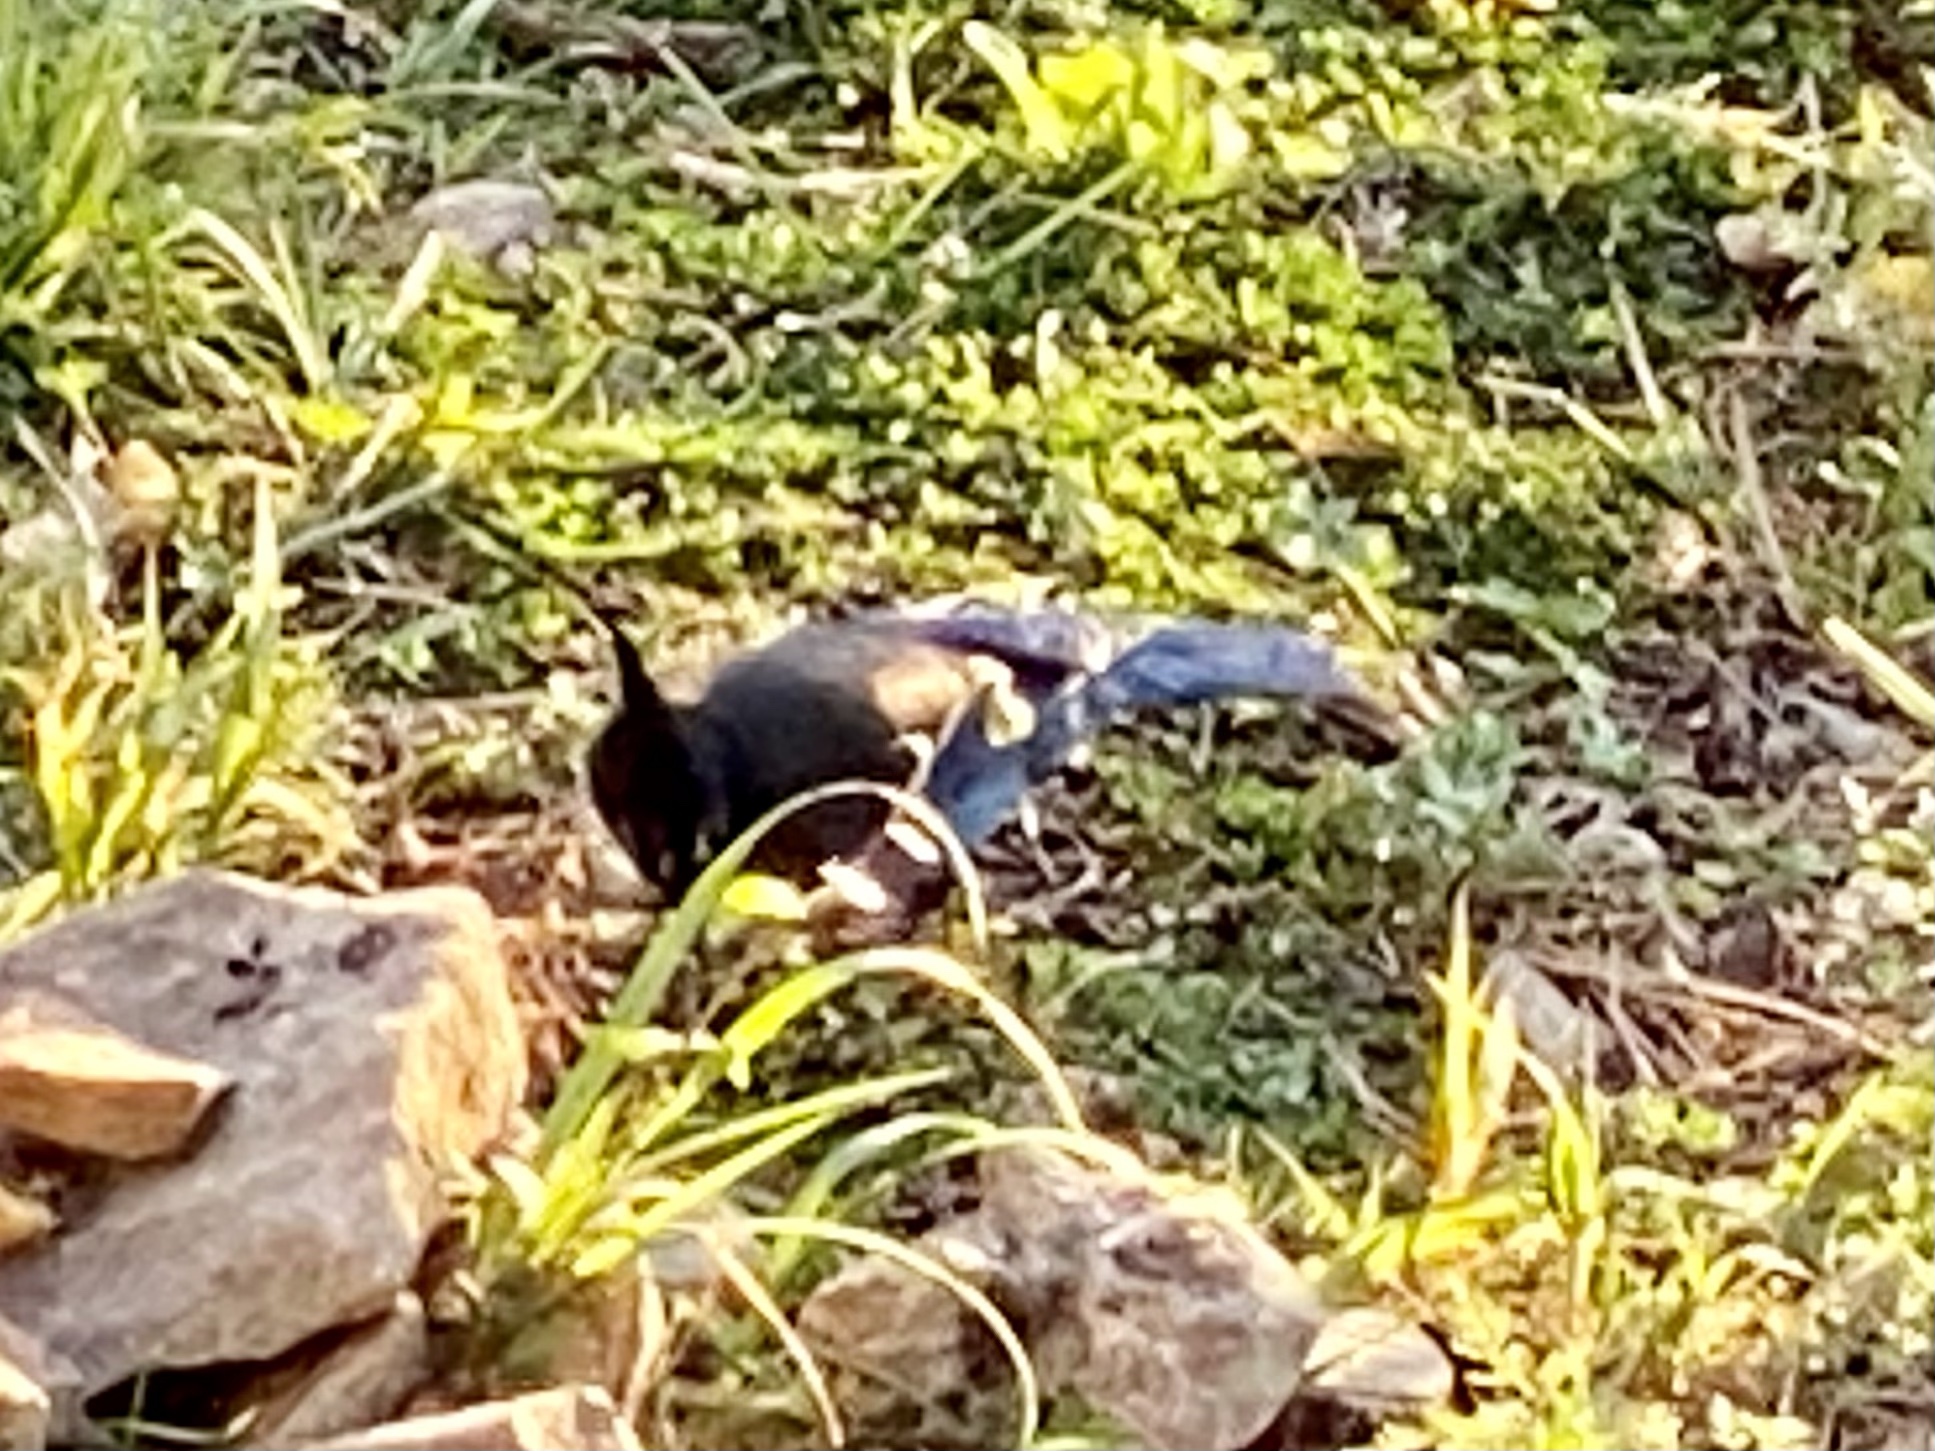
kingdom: Animalia
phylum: Chordata
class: Aves
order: Passeriformes
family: Corvidae
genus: Cyanocitta
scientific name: Cyanocitta stelleri
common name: Steller's jay
